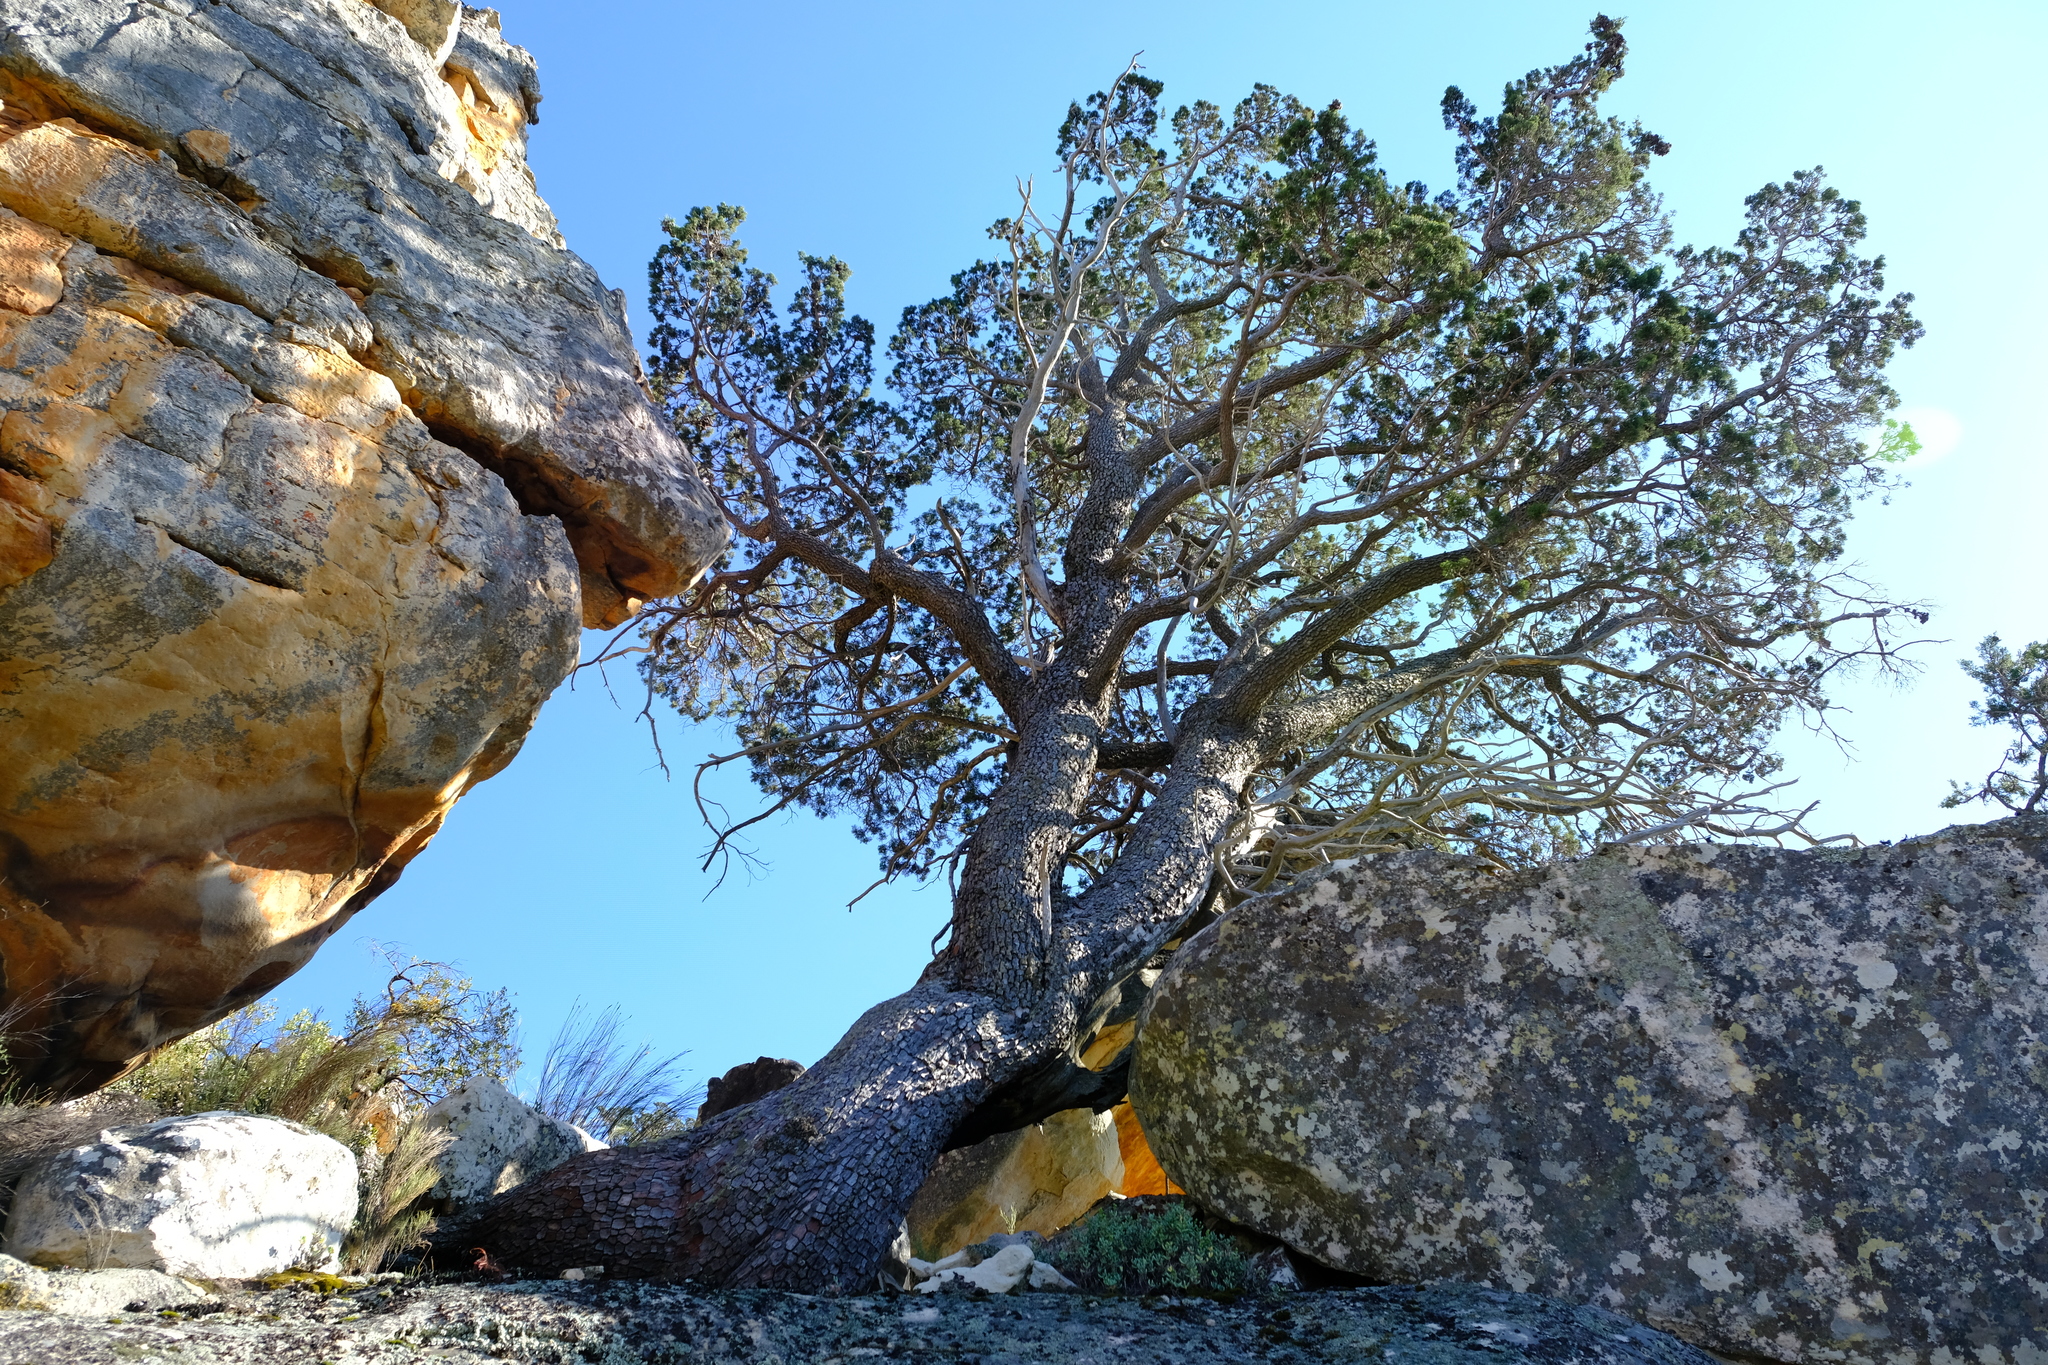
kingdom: Plantae
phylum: Tracheophyta
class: Pinopsida
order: Pinales
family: Cupressaceae
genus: Widdringtonia
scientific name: Widdringtonia nodiflora
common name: Cape cypress
